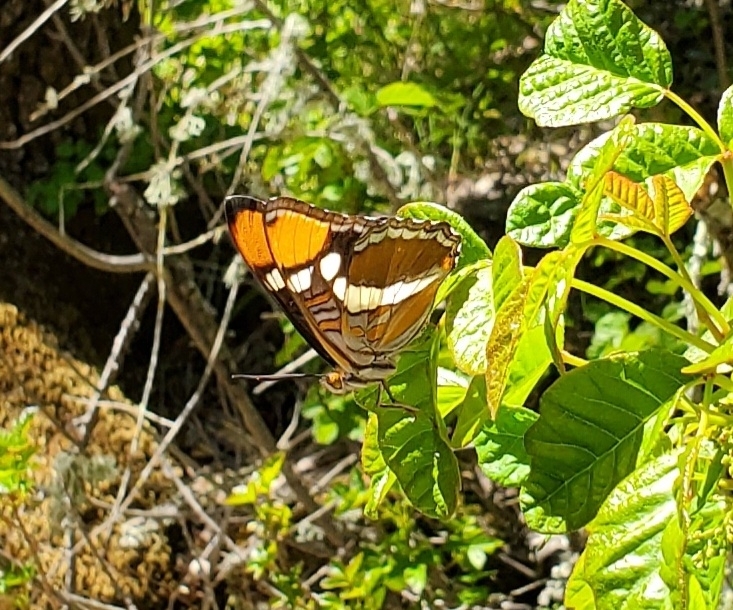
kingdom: Animalia
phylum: Arthropoda
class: Insecta
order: Lepidoptera
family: Nymphalidae
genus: Limenitis
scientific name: Limenitis bredowii
